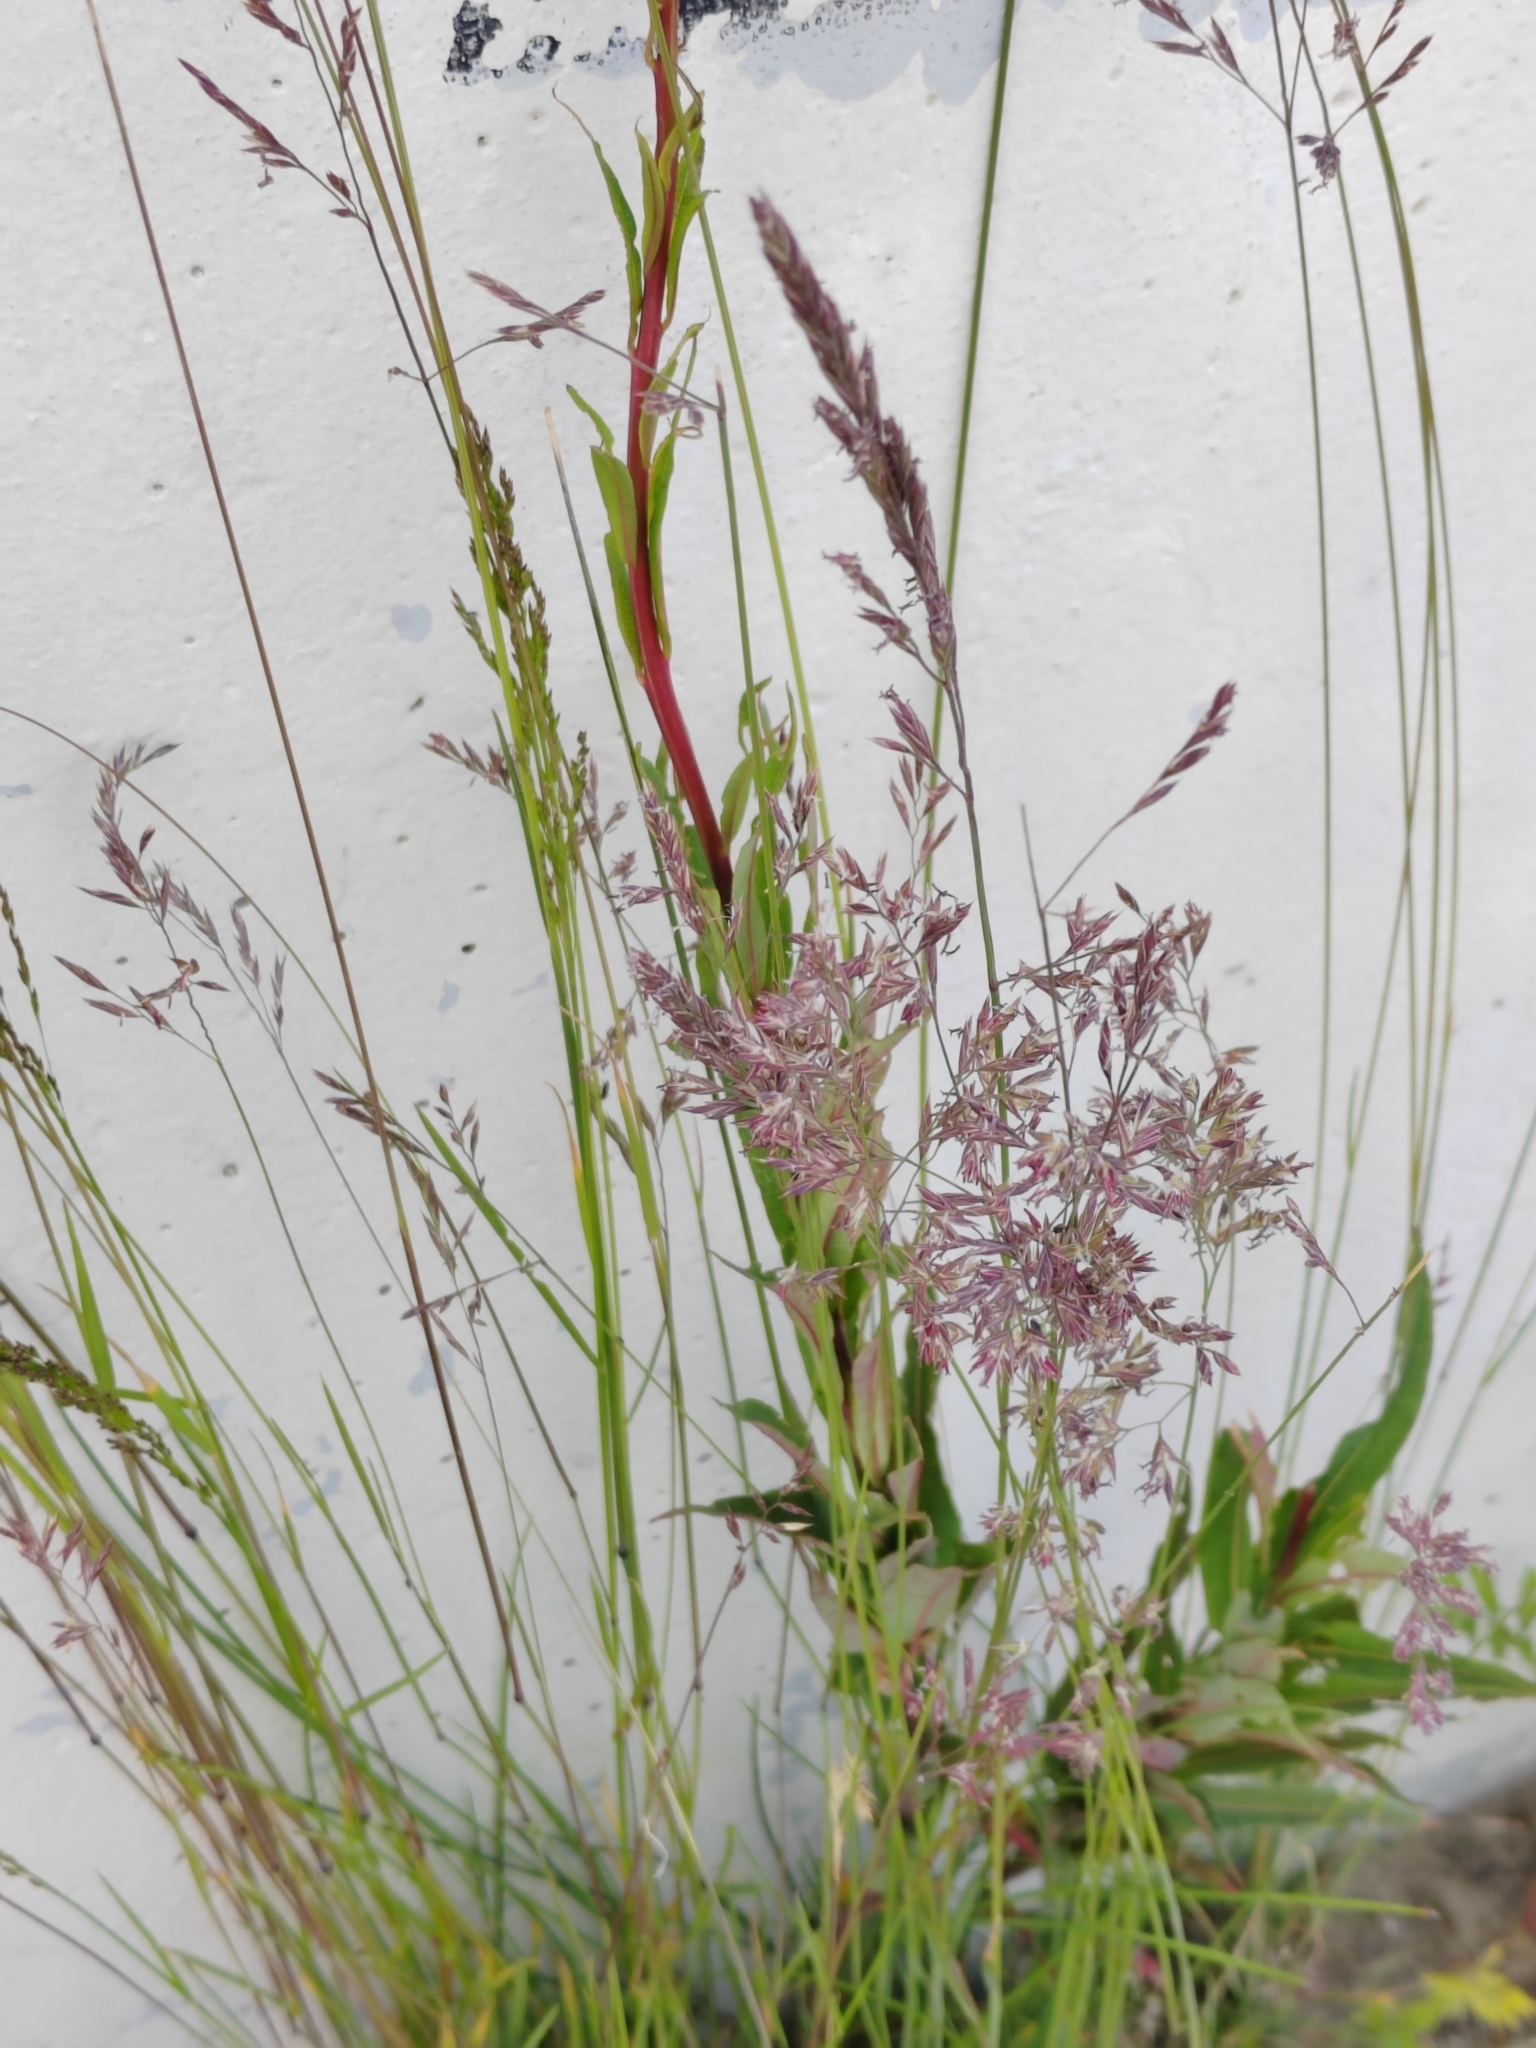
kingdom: Plantae
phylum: Tracheophyta
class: Liliopsida
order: Poales
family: Poaceae
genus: Agrostis
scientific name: Agrostis gigantea
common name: Black bent
